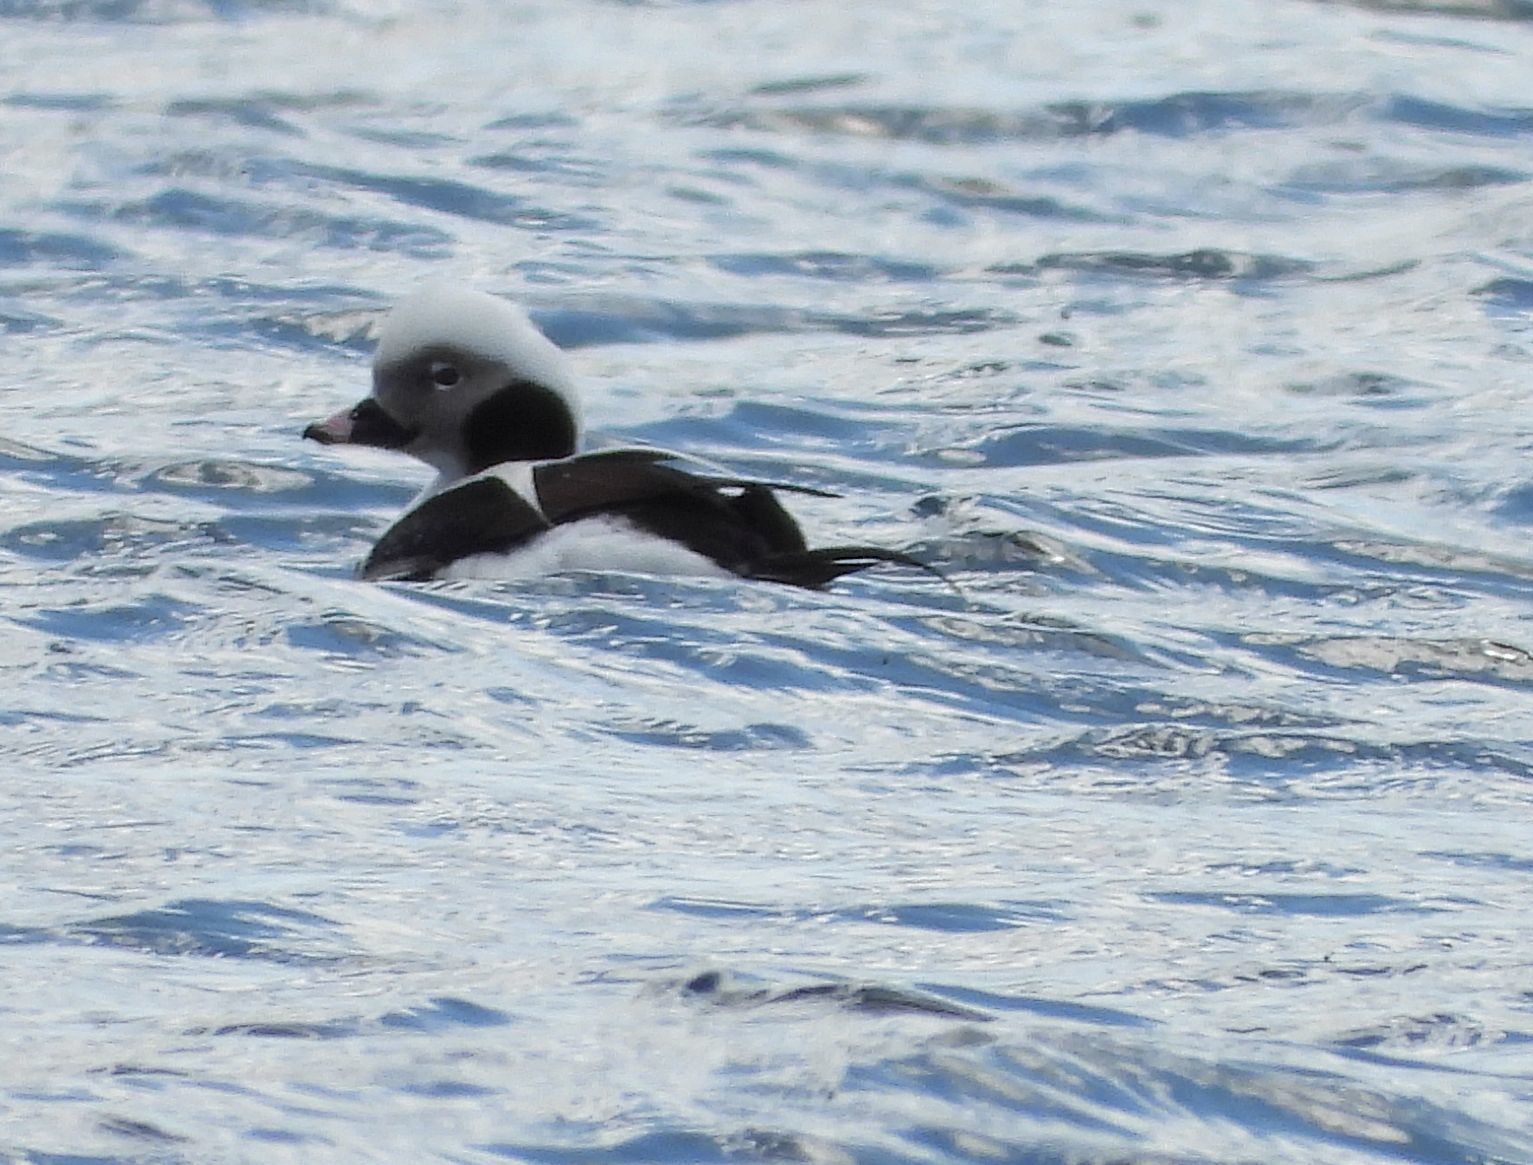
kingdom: Animalia
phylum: Chordata
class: Aves
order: Anseriformes
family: Anatidae
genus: Clangula
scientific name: Clangula hyemalis
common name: Long-tailed duck
